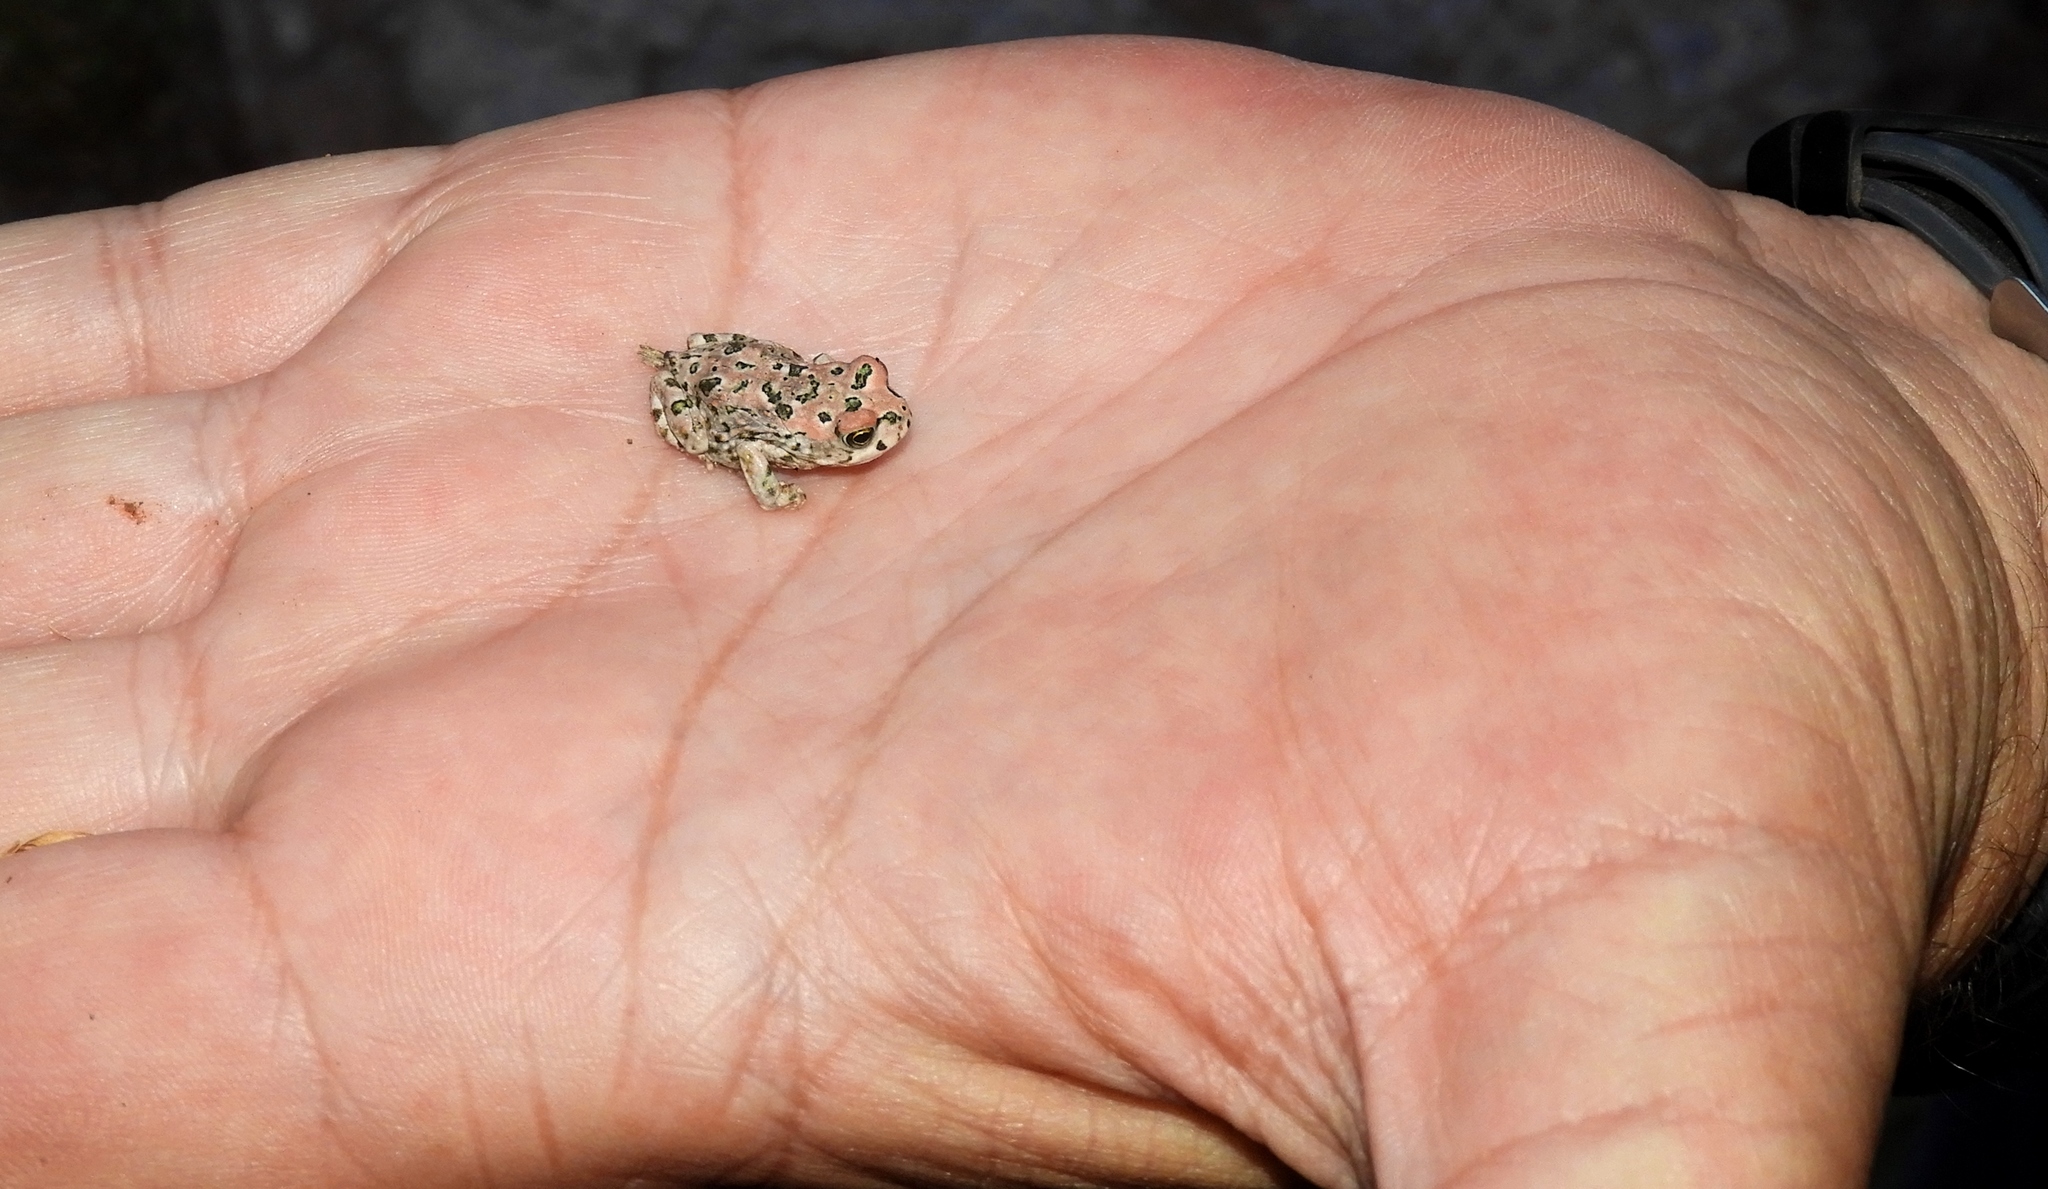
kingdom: Animalia
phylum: Chordata
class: Amphibia
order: Anura
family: Bufonidae
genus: Vandijkophrynus
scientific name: Vandijkophrynus robinsoni
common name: Paradise toad
